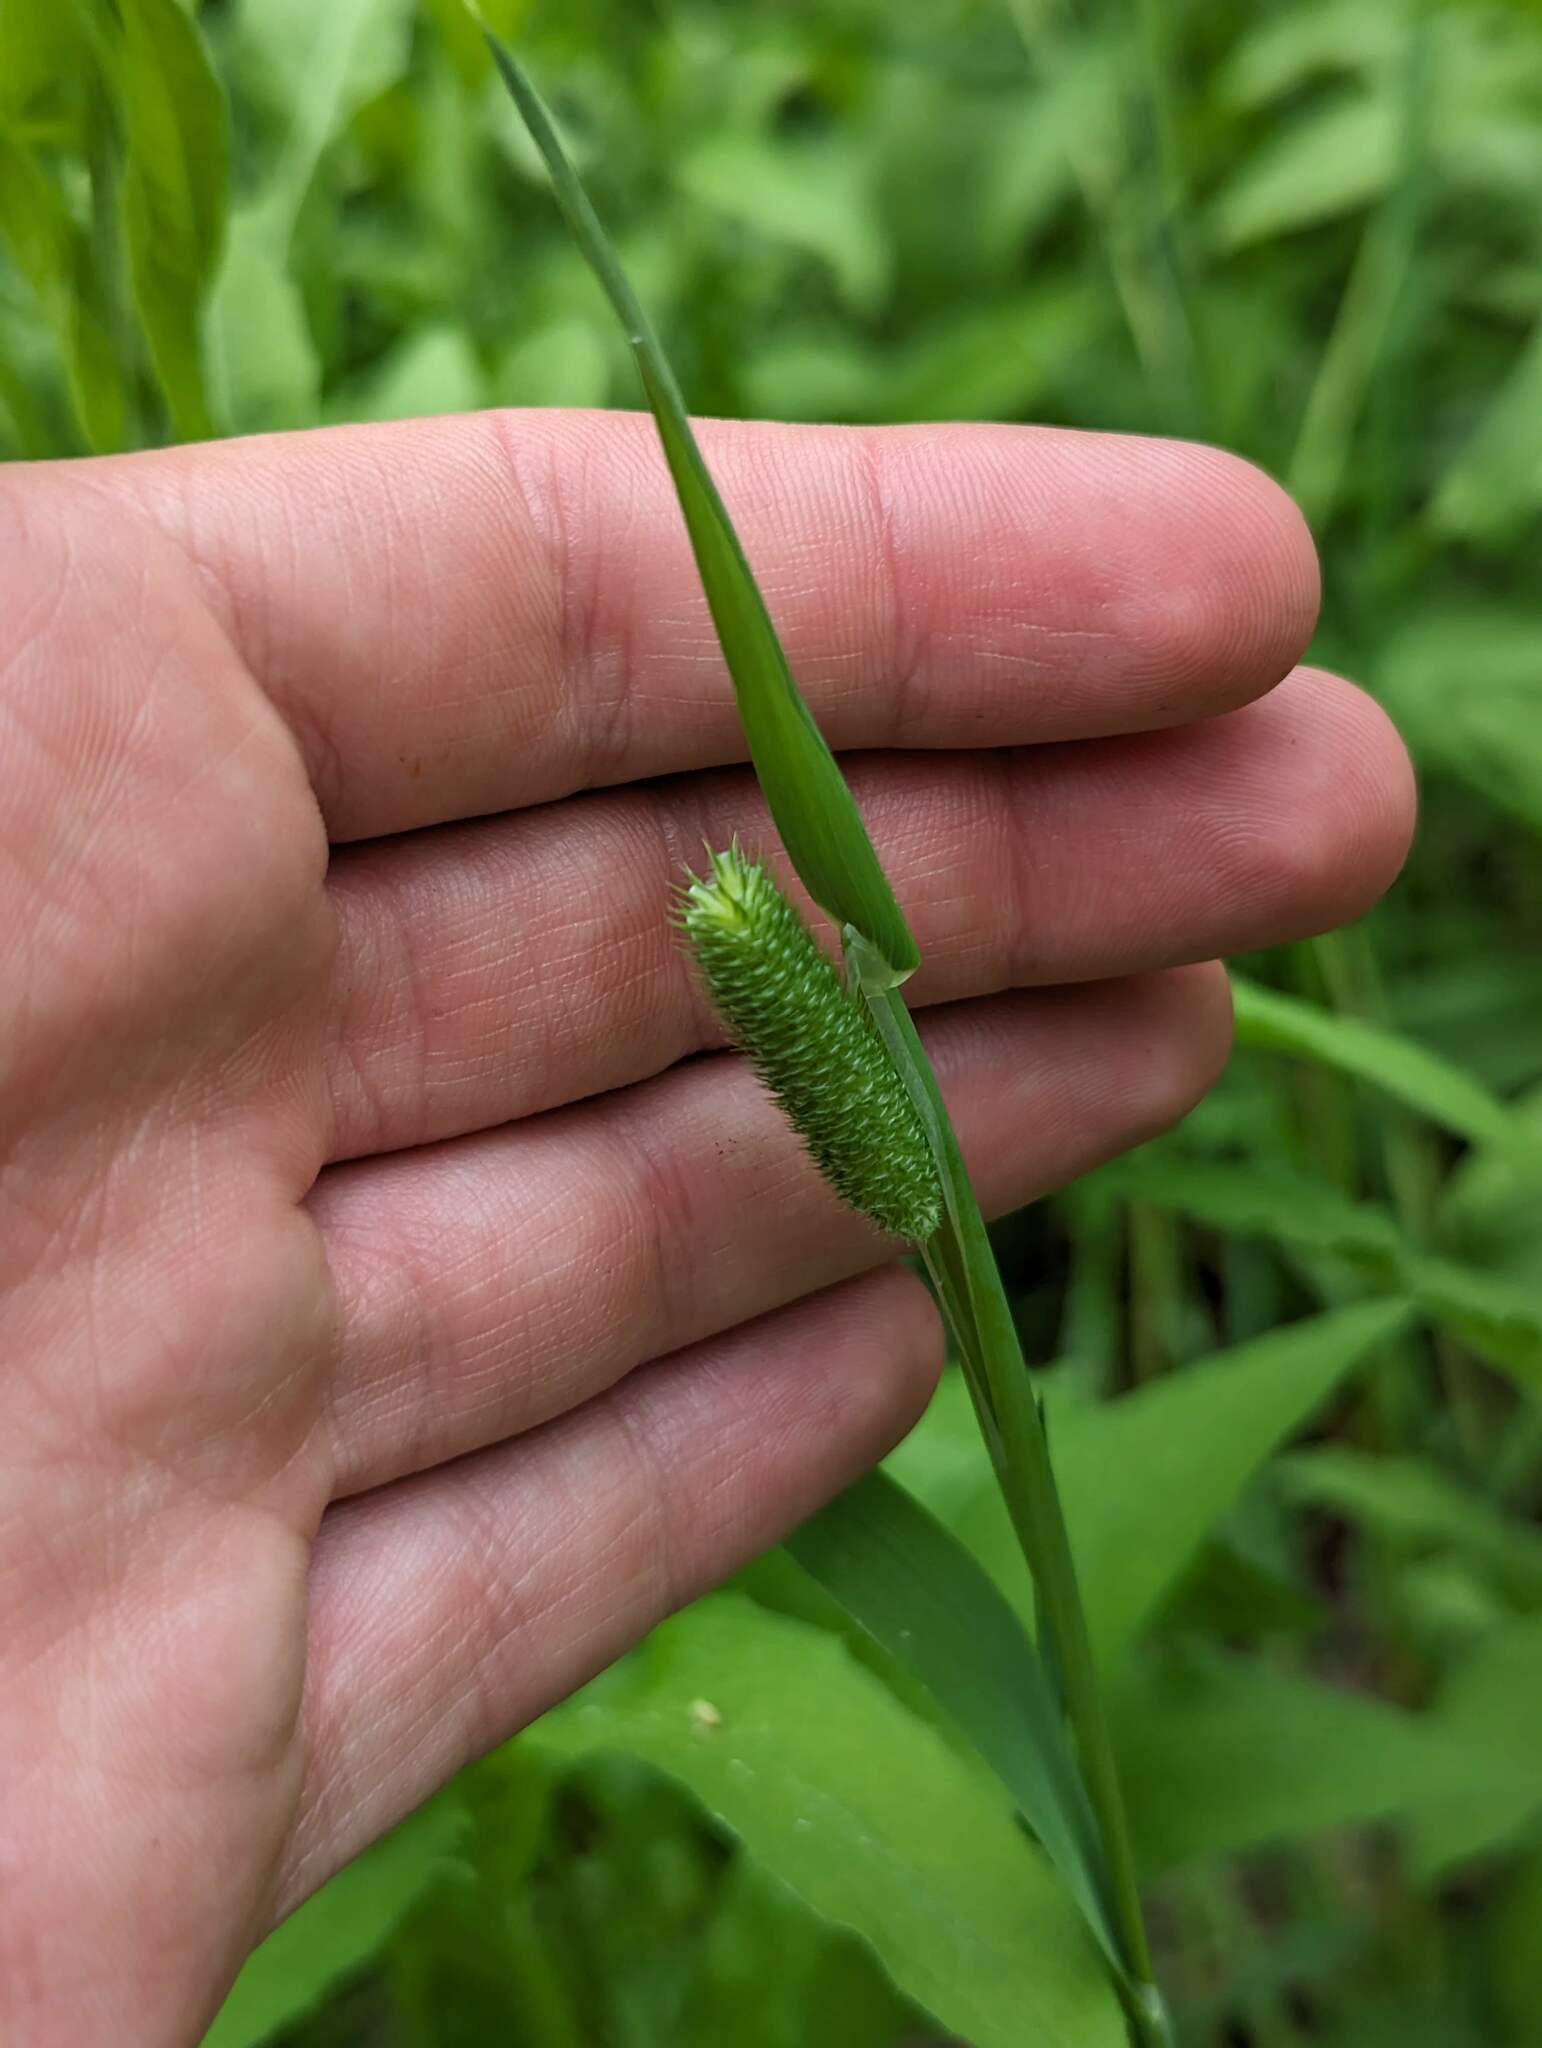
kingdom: Plantae
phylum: Tracheophyta
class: Liliopsida
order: Poales
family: Poaceae
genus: Phleum
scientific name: Phleum pratense
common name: Timothy grass
